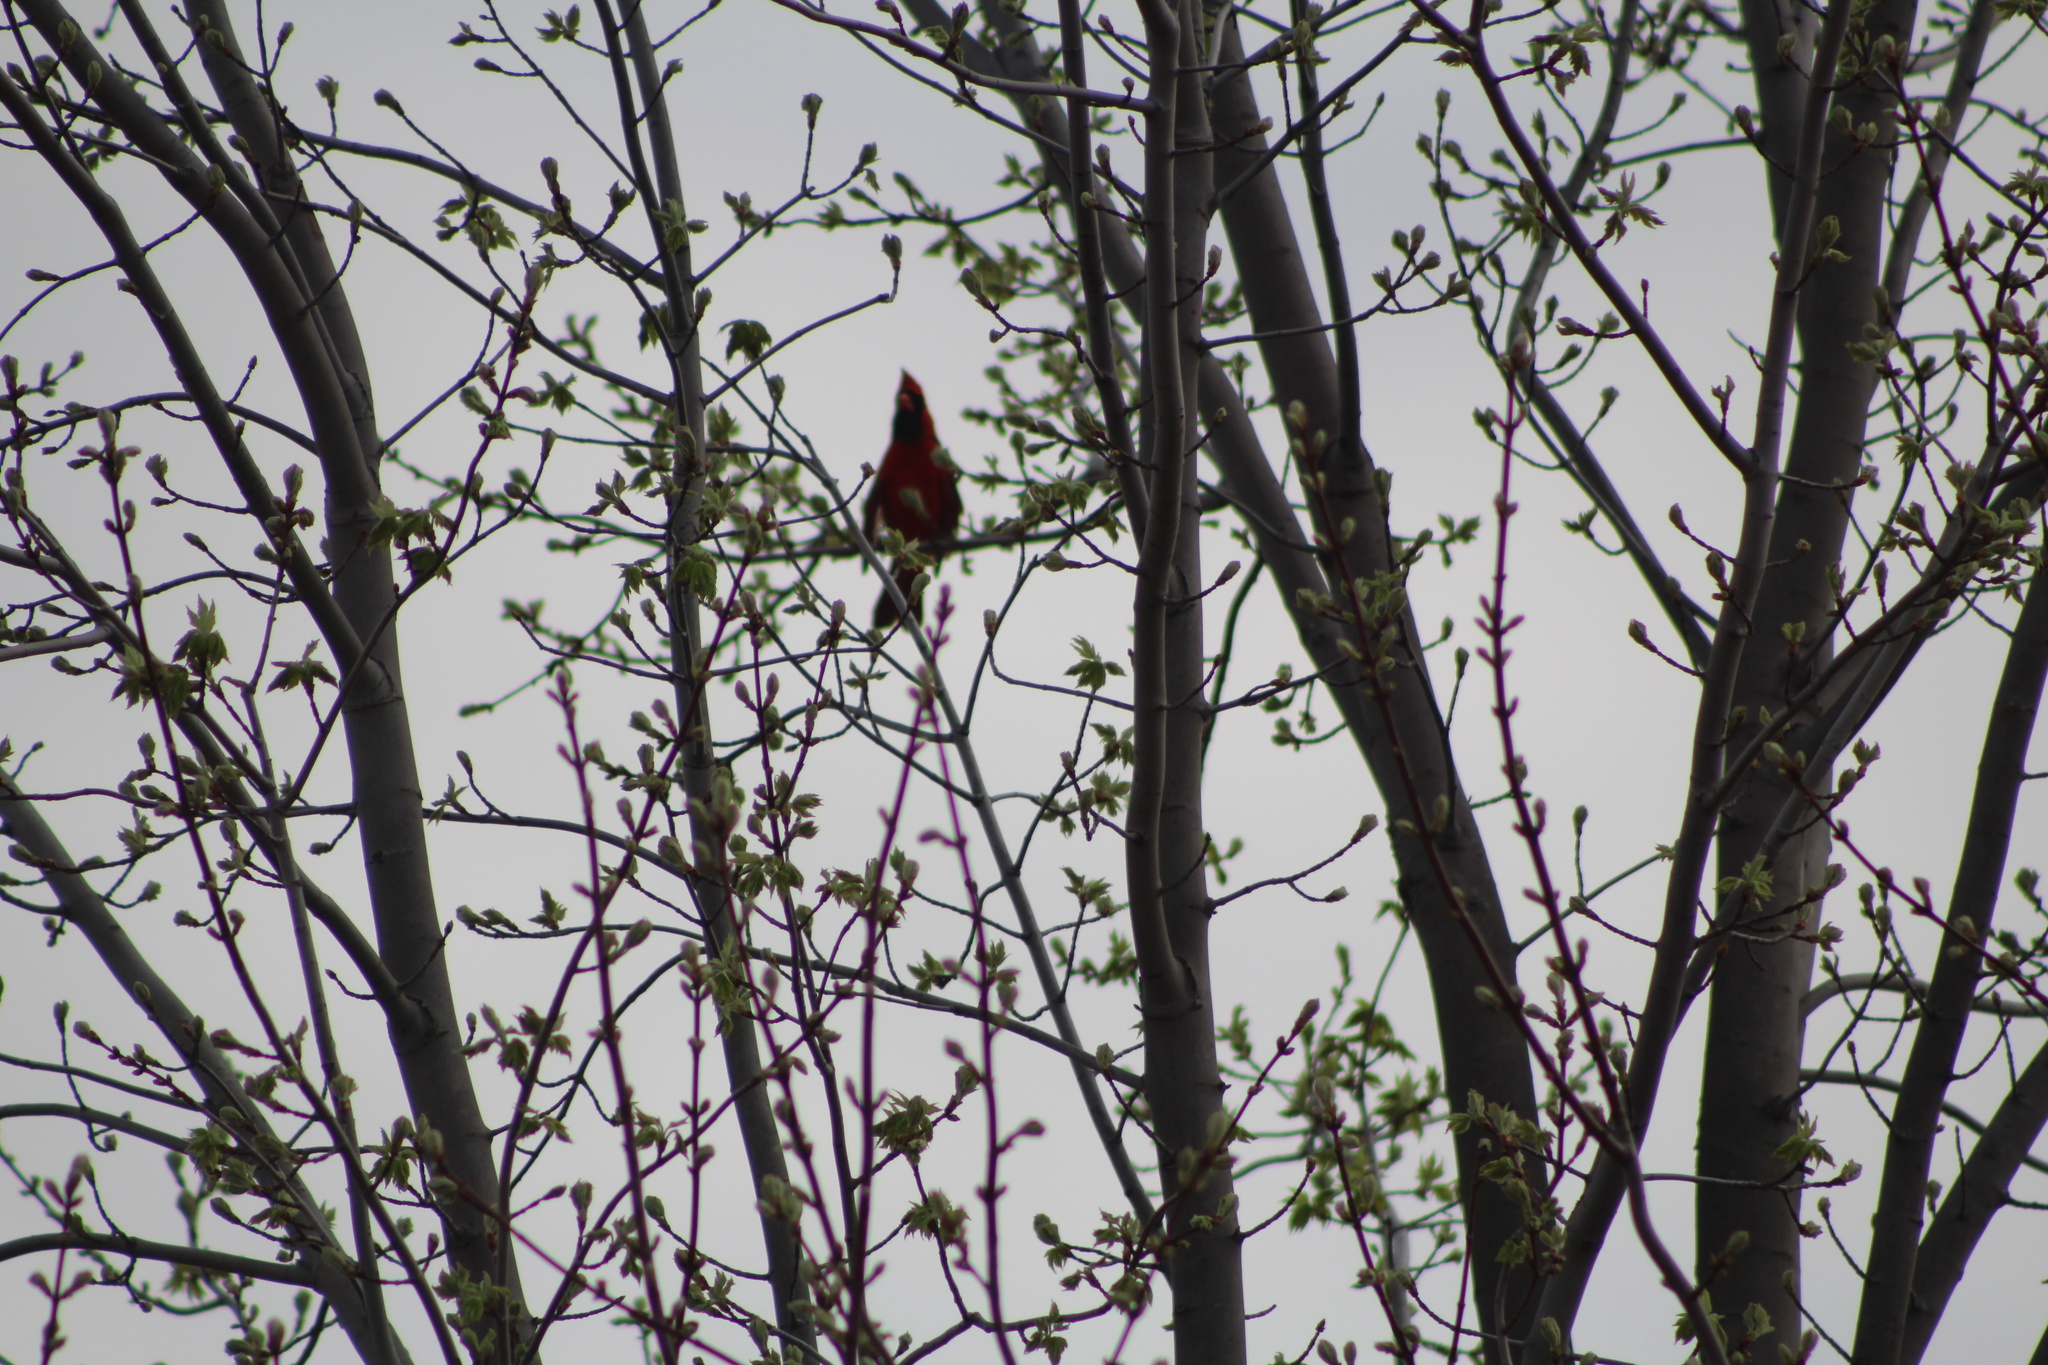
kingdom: Animalia
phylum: Chordata
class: Aves
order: Passeriformes
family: Cardinalidae
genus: Cardinalis
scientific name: Cardinalis cardinalis
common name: Northern cardinal
